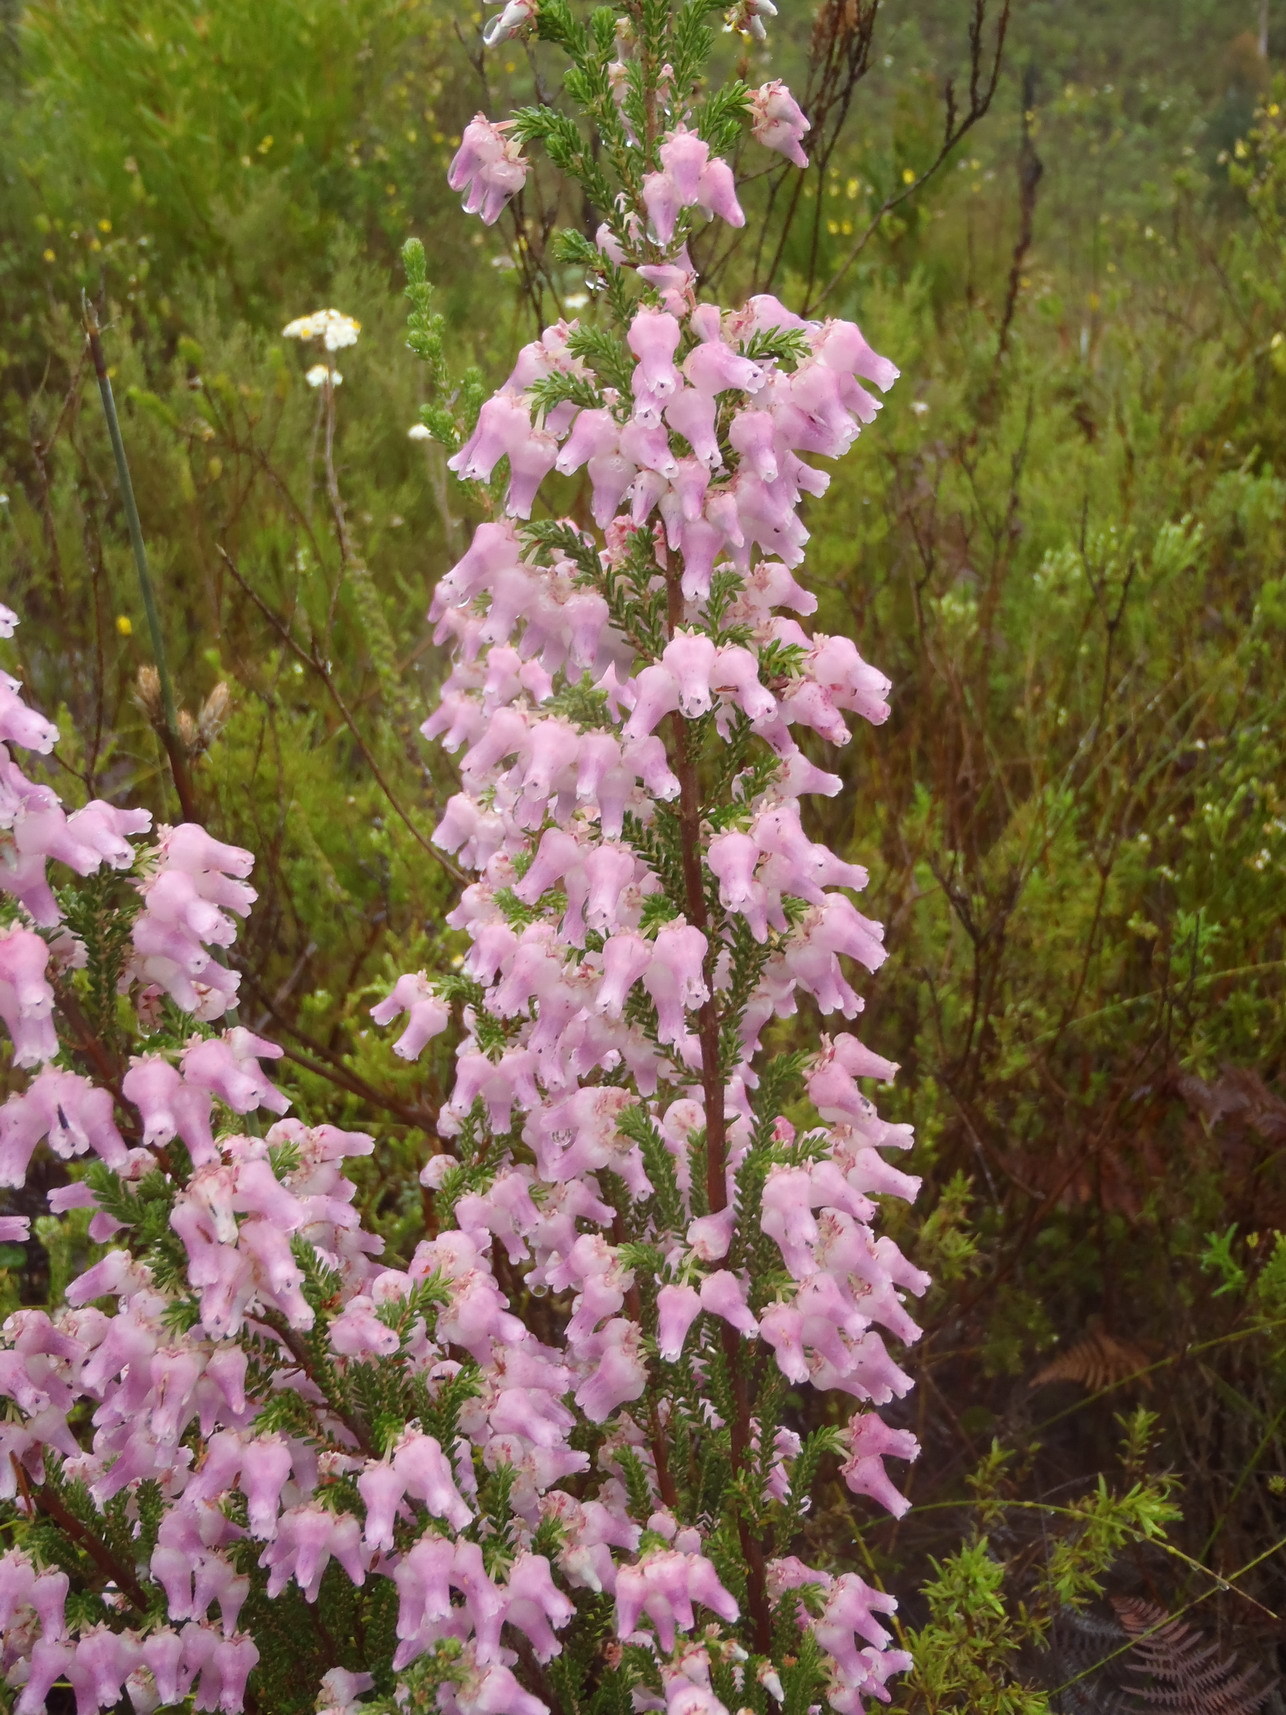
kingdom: Plantae
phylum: Tracheophyta
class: Magnoliopsida
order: Ericales
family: Ericaceae
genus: Erica
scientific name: Erica glomiflora
